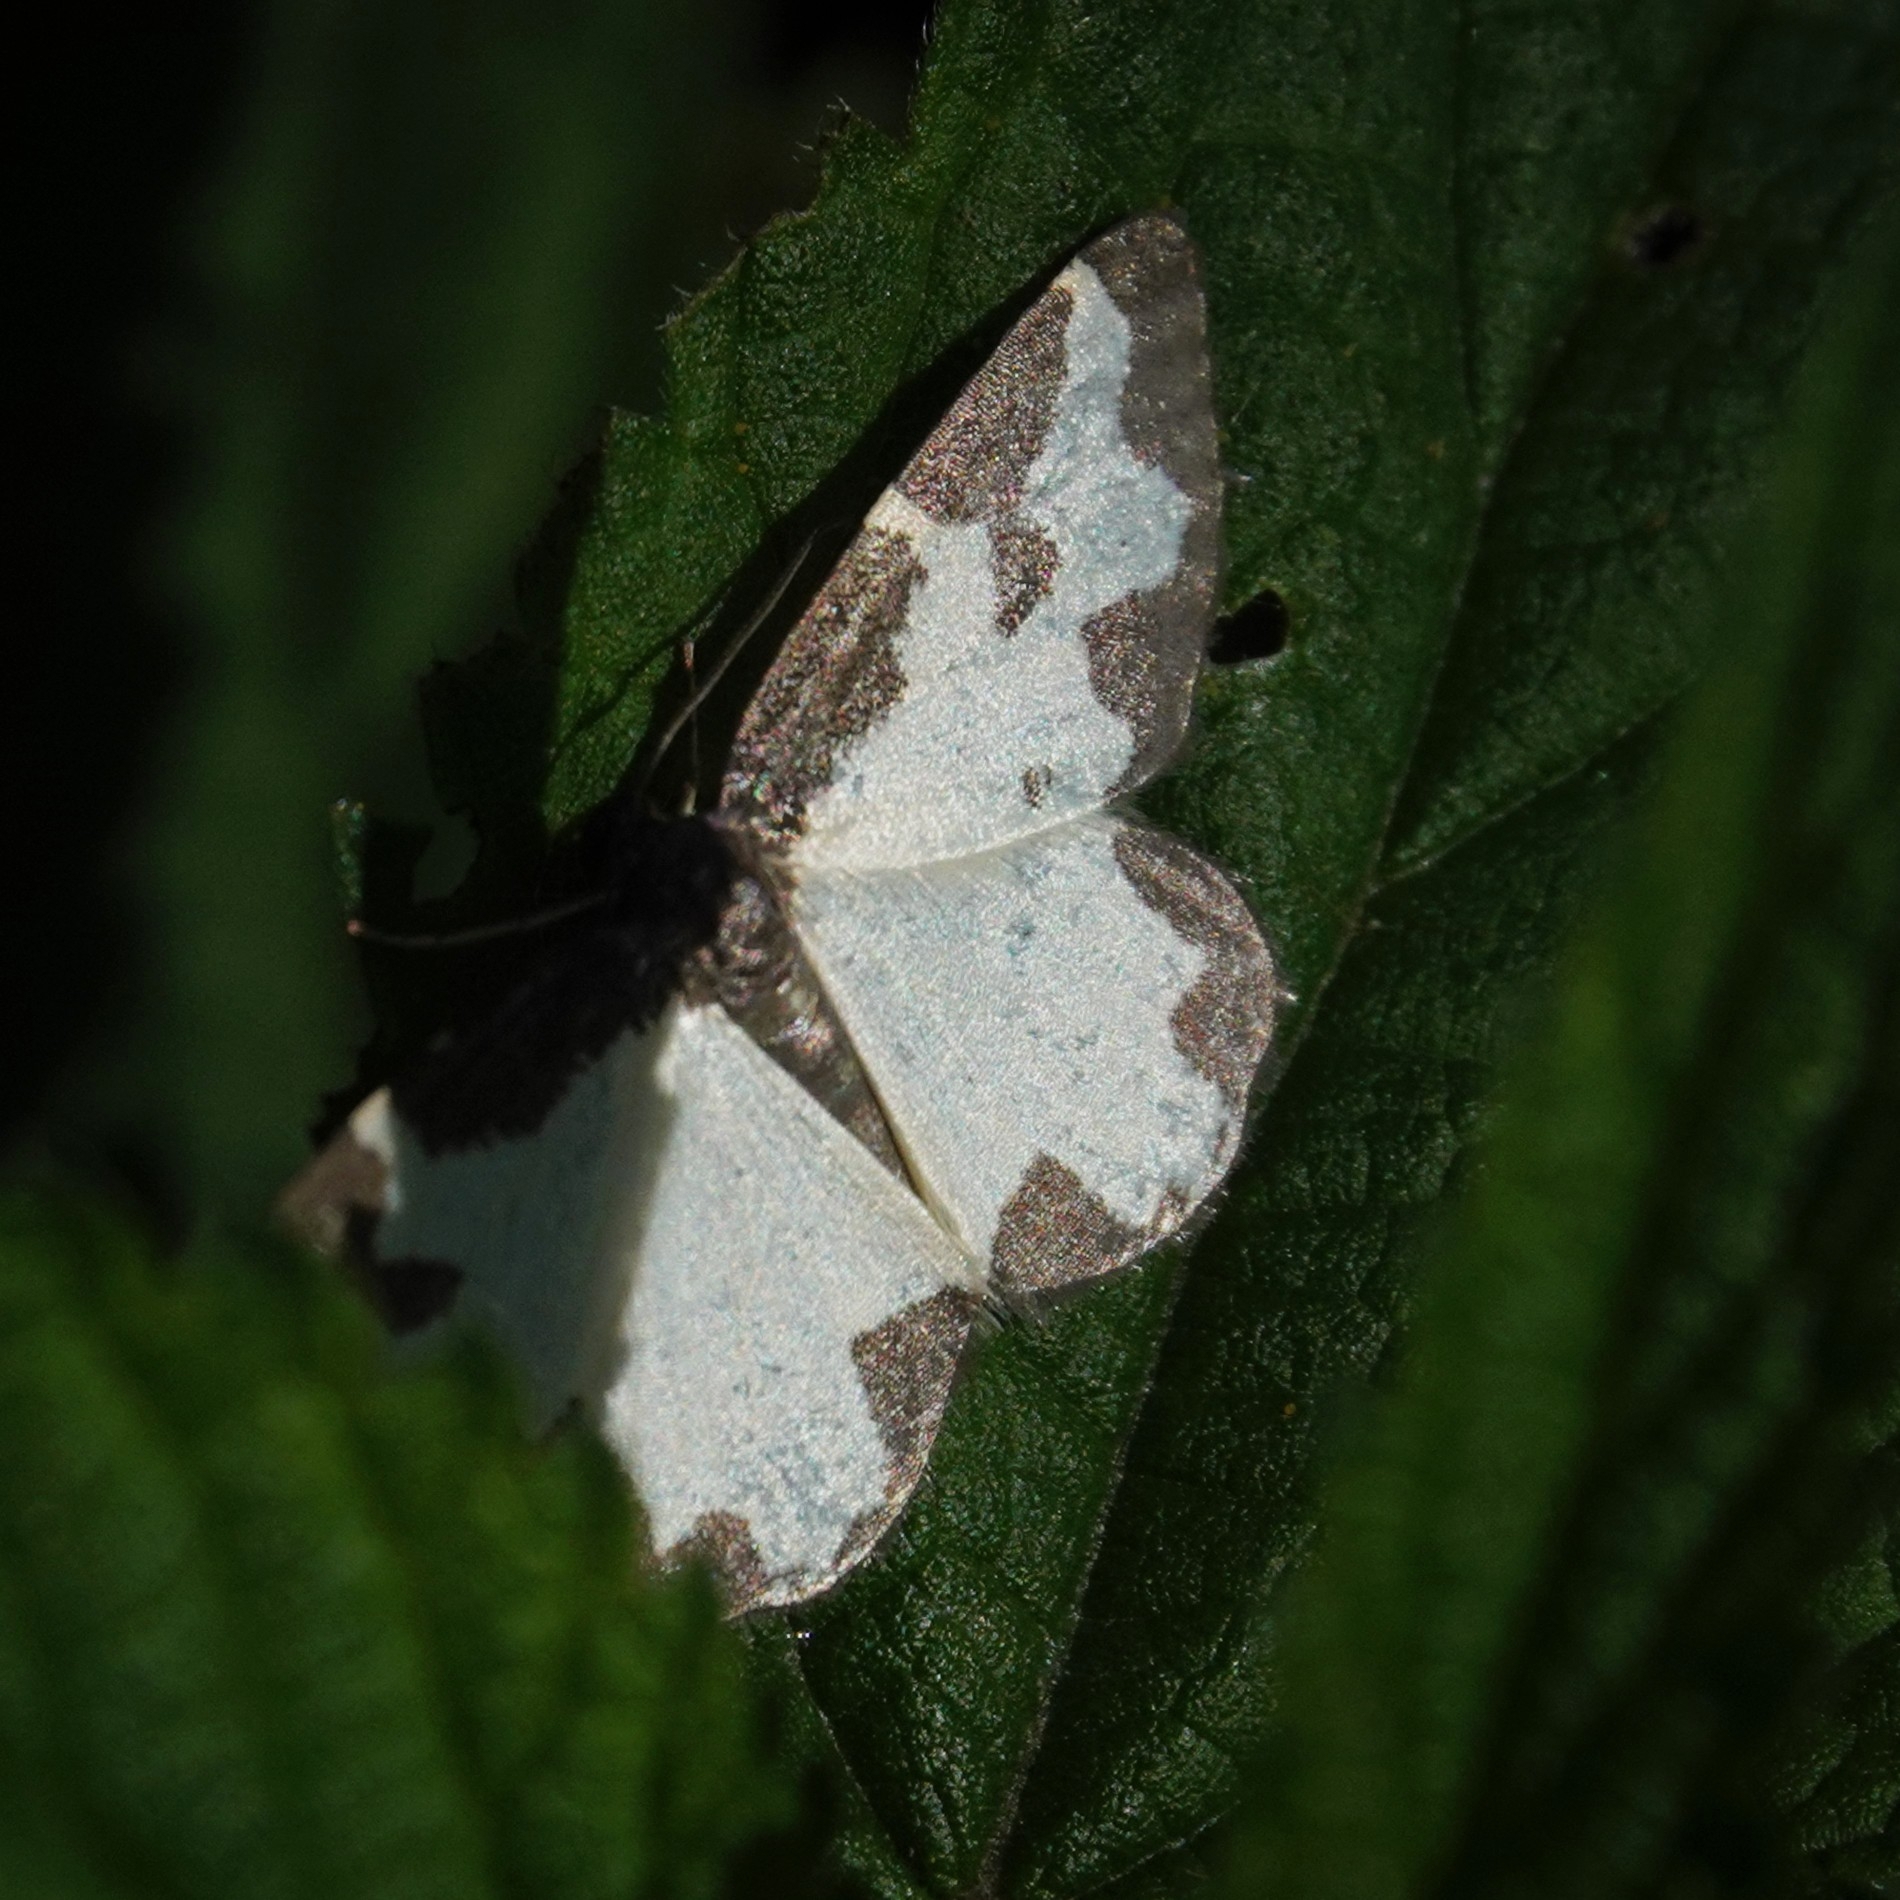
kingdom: Animalia
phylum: Arthropoda
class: Insecta
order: Lepidoptera
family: Geometridae
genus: Lomaspilis
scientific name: Lomaspilis marginata
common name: Clouded border
